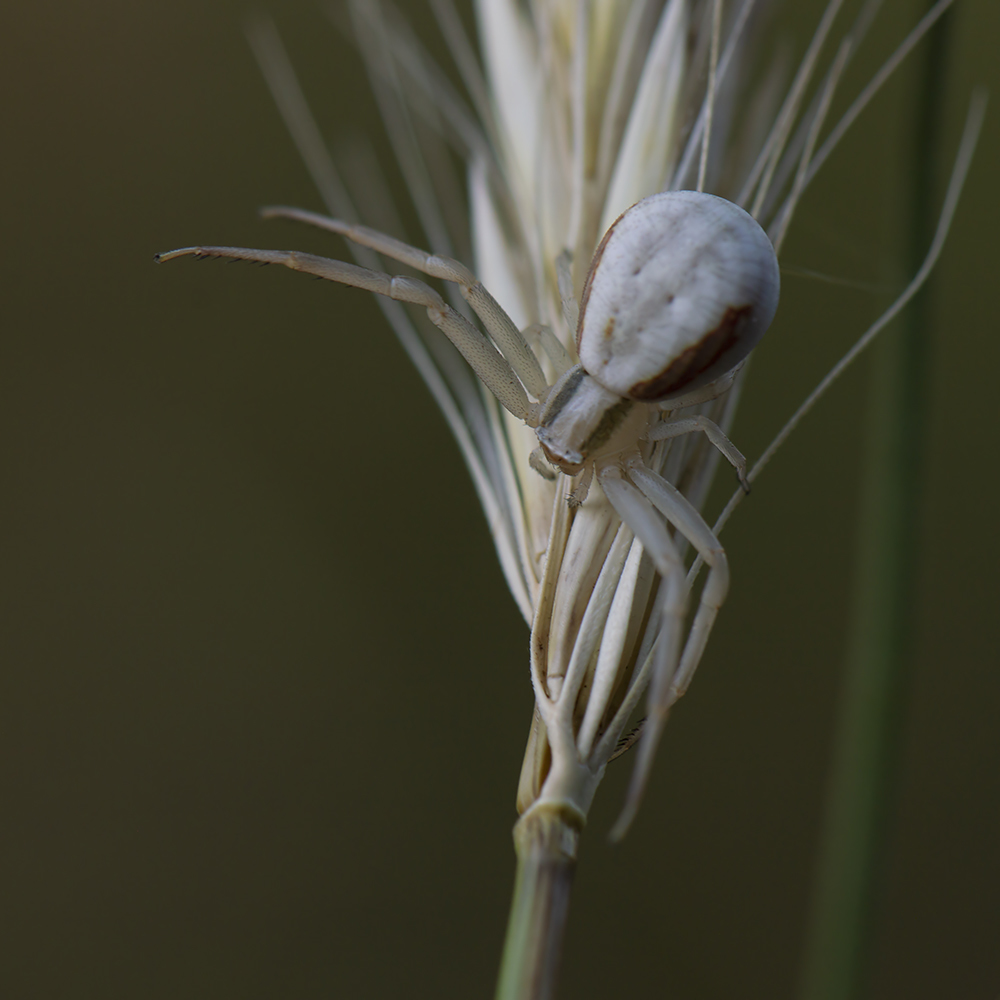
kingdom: Animalia
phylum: Arthropoda
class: Arachnida
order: Araneae
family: Thomisidae
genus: Runcinia
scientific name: Runcinia grammica
